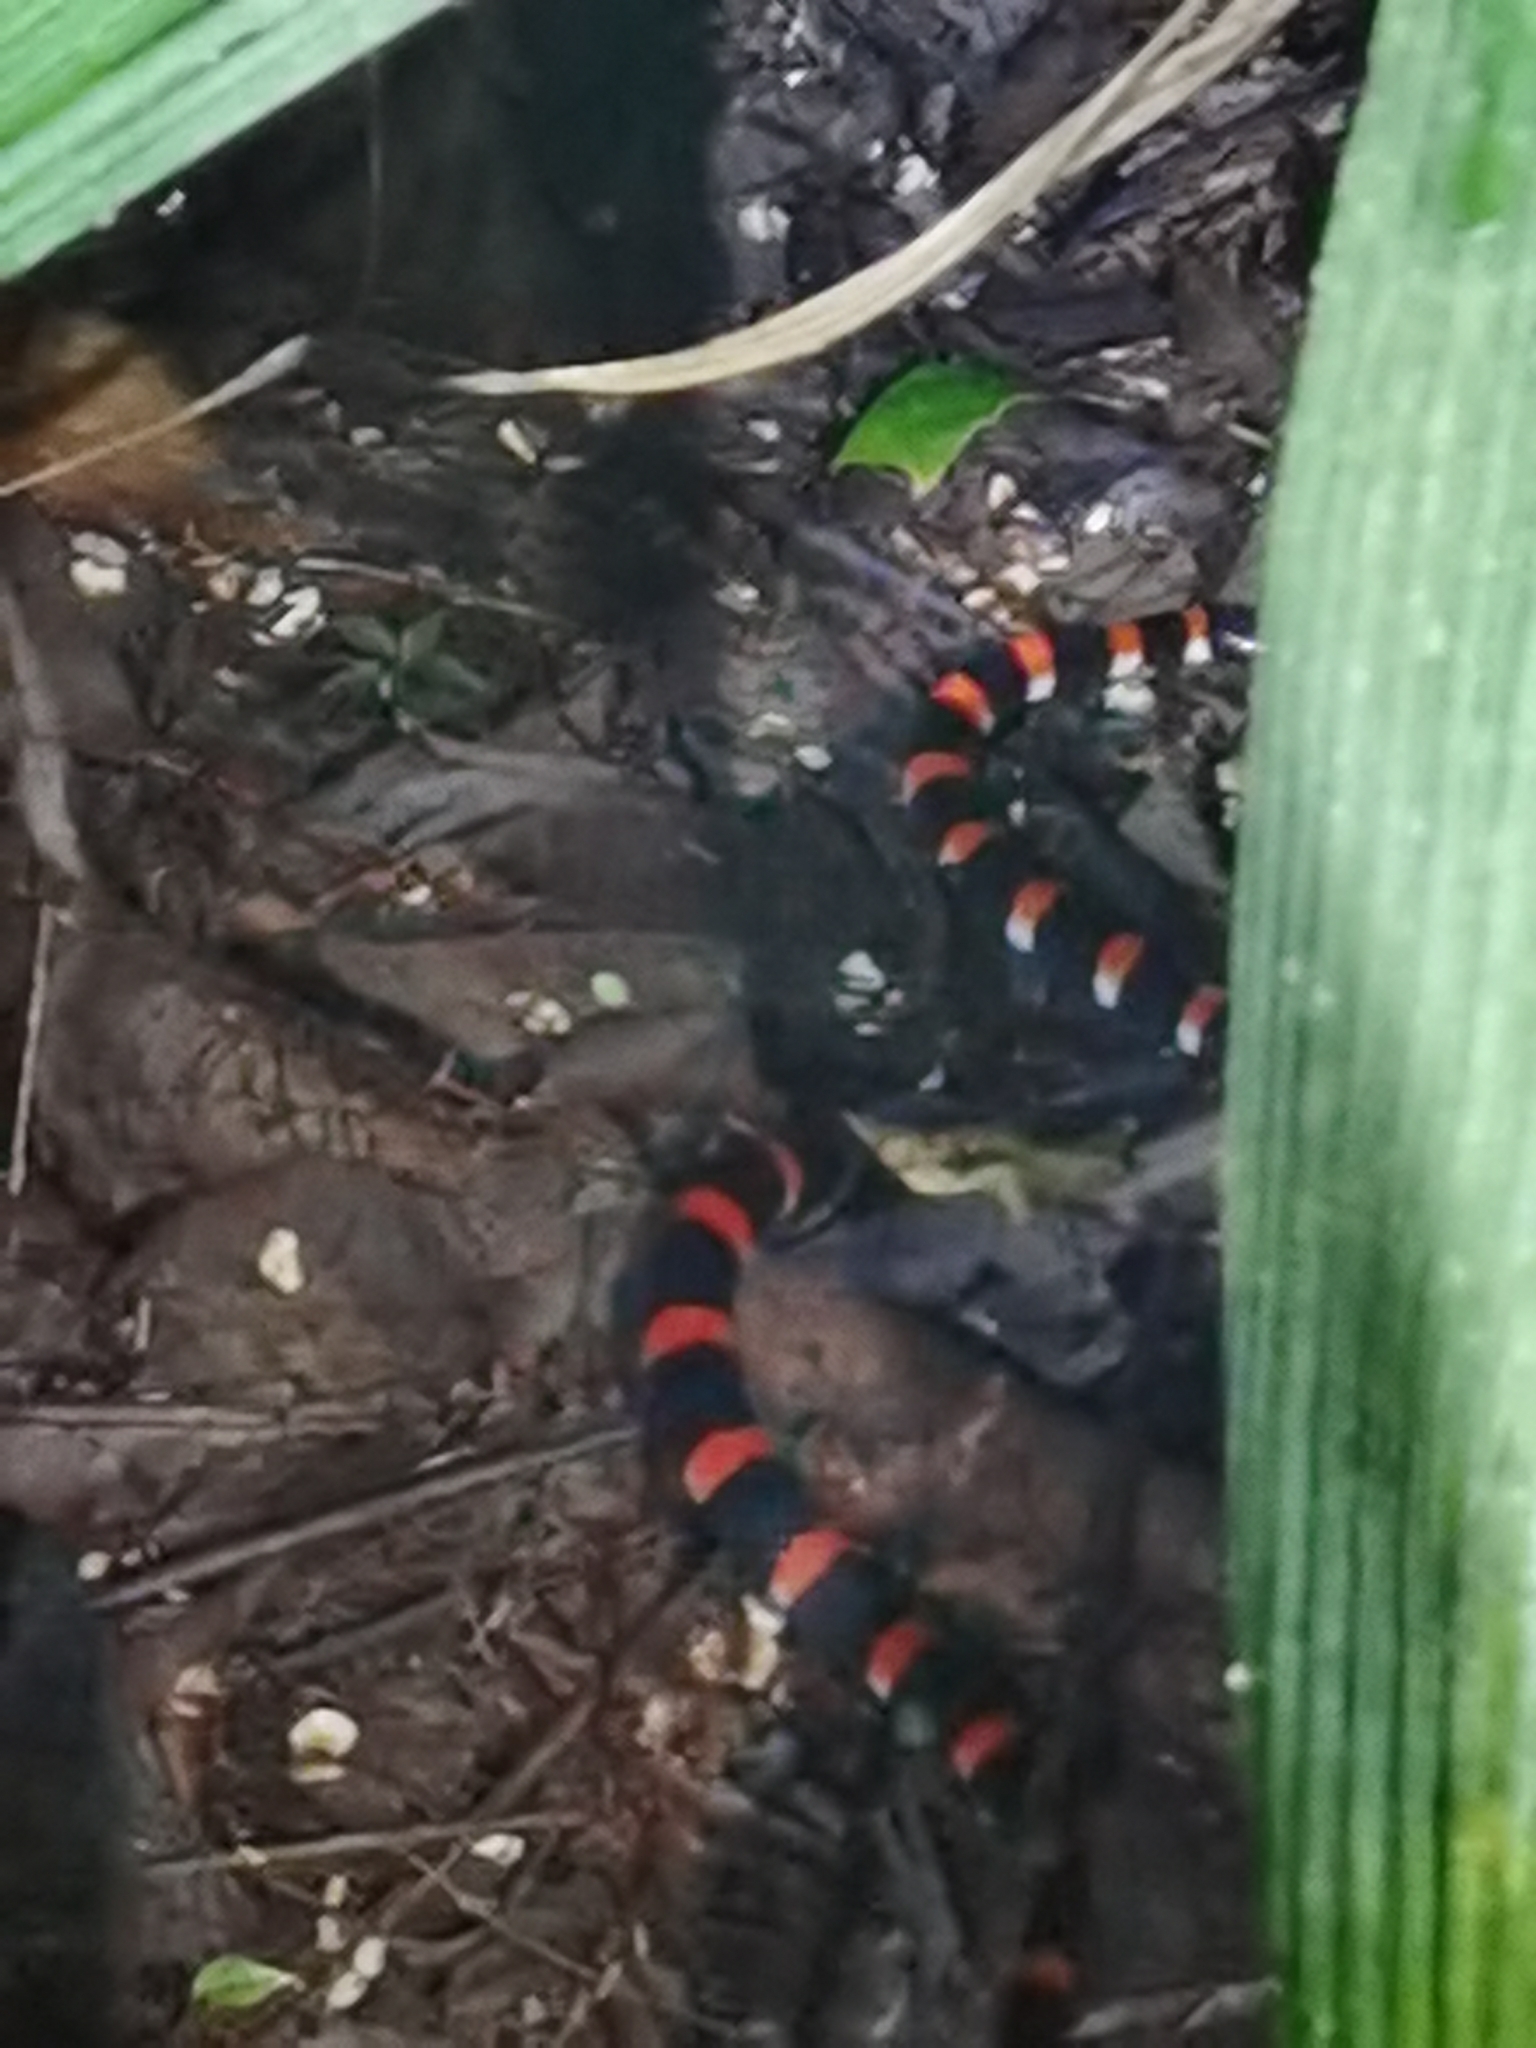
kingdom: Animalia
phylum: Chordata
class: Squamata
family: Colubridae
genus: Pliocercus
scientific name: Pliocercus euryzonus
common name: Cope's false coral snake
